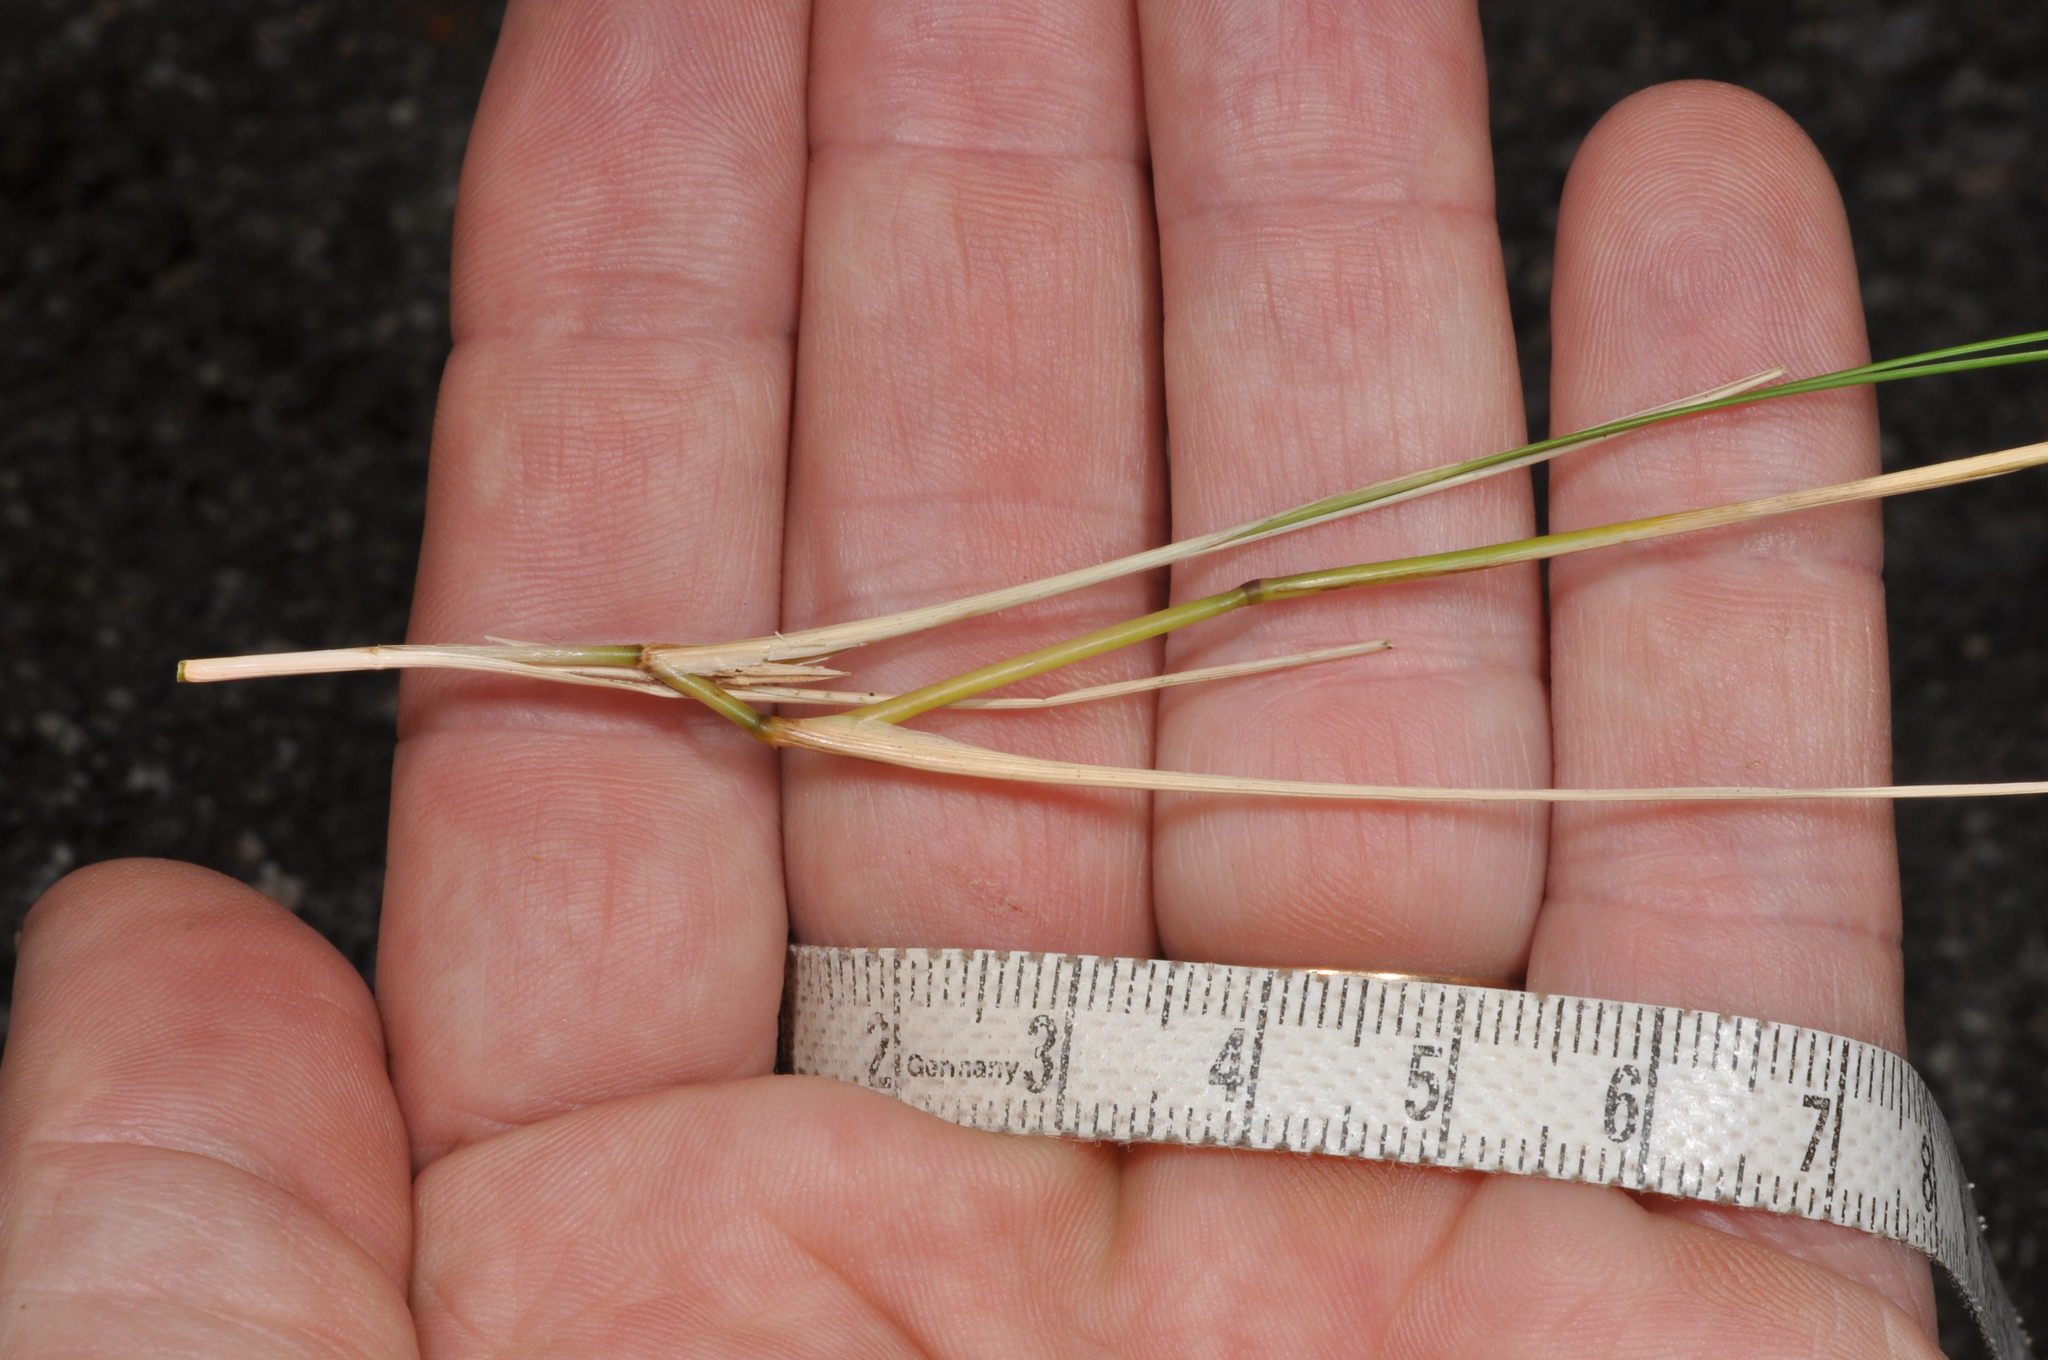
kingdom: Plantae
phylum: Tracheophyta
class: Liliopsida
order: Poales
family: Poaceae
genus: Rytidosperma
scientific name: Rytidosperma setifolium
